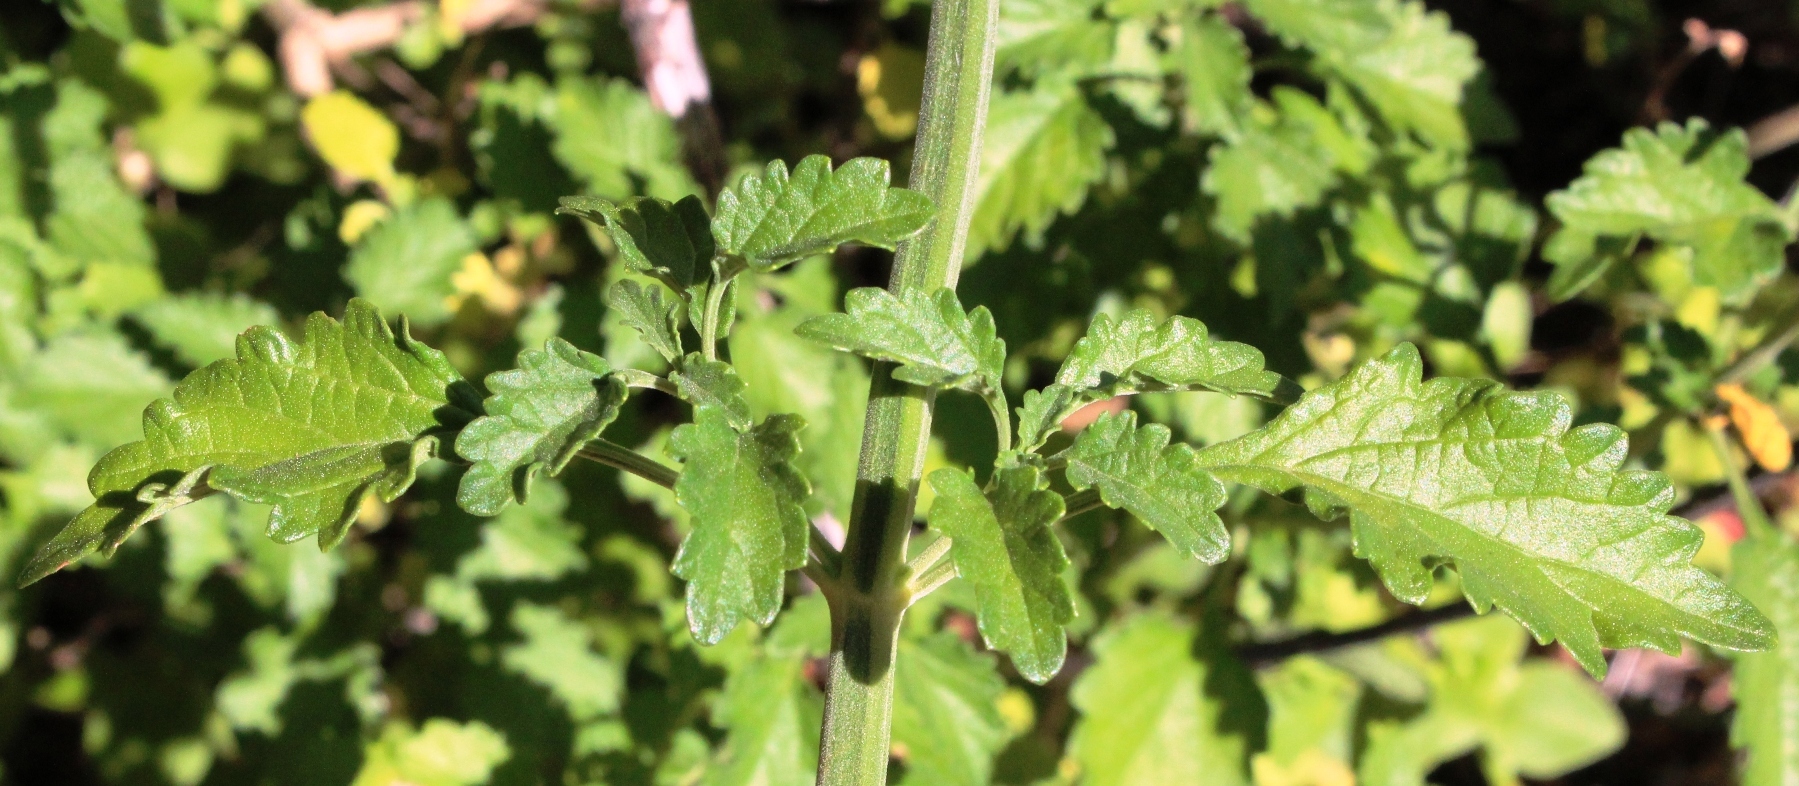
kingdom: Plantae
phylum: Tracheophyta
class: Magnoliopsida
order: Lamiales
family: Lamiaceae
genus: Leonotis
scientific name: Leonotis ocymifolia
